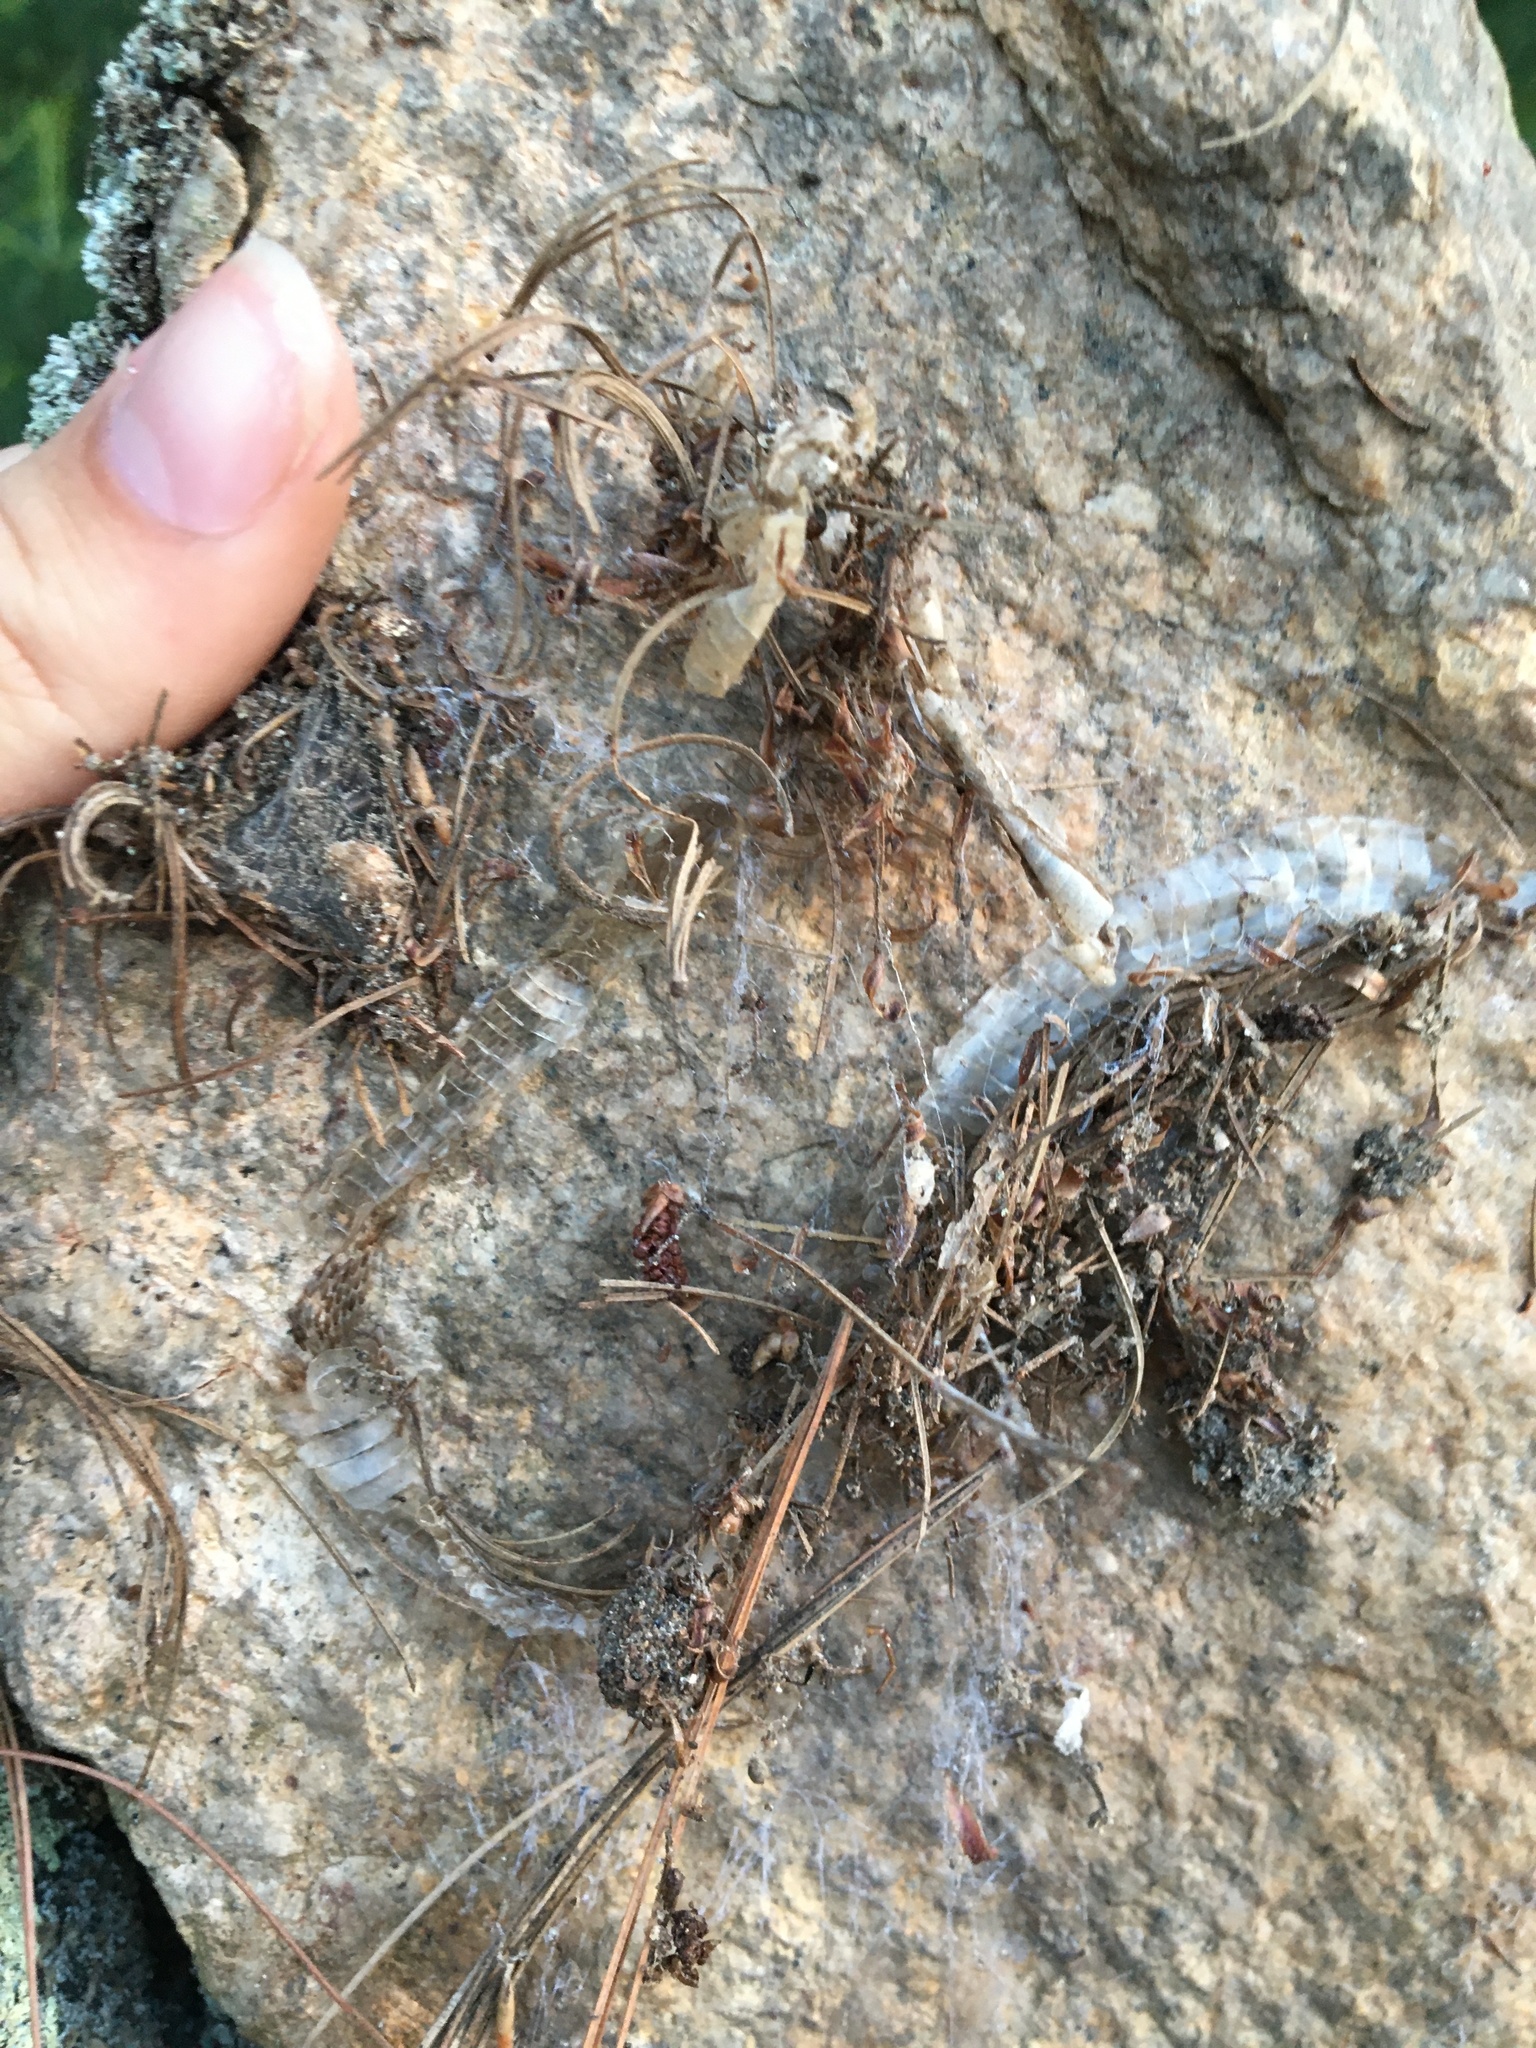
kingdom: Animalia
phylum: Chordata
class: Squamata
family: Colubridae
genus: Thamnophis
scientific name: Thamnophis sirtalis
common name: Common garter snake
